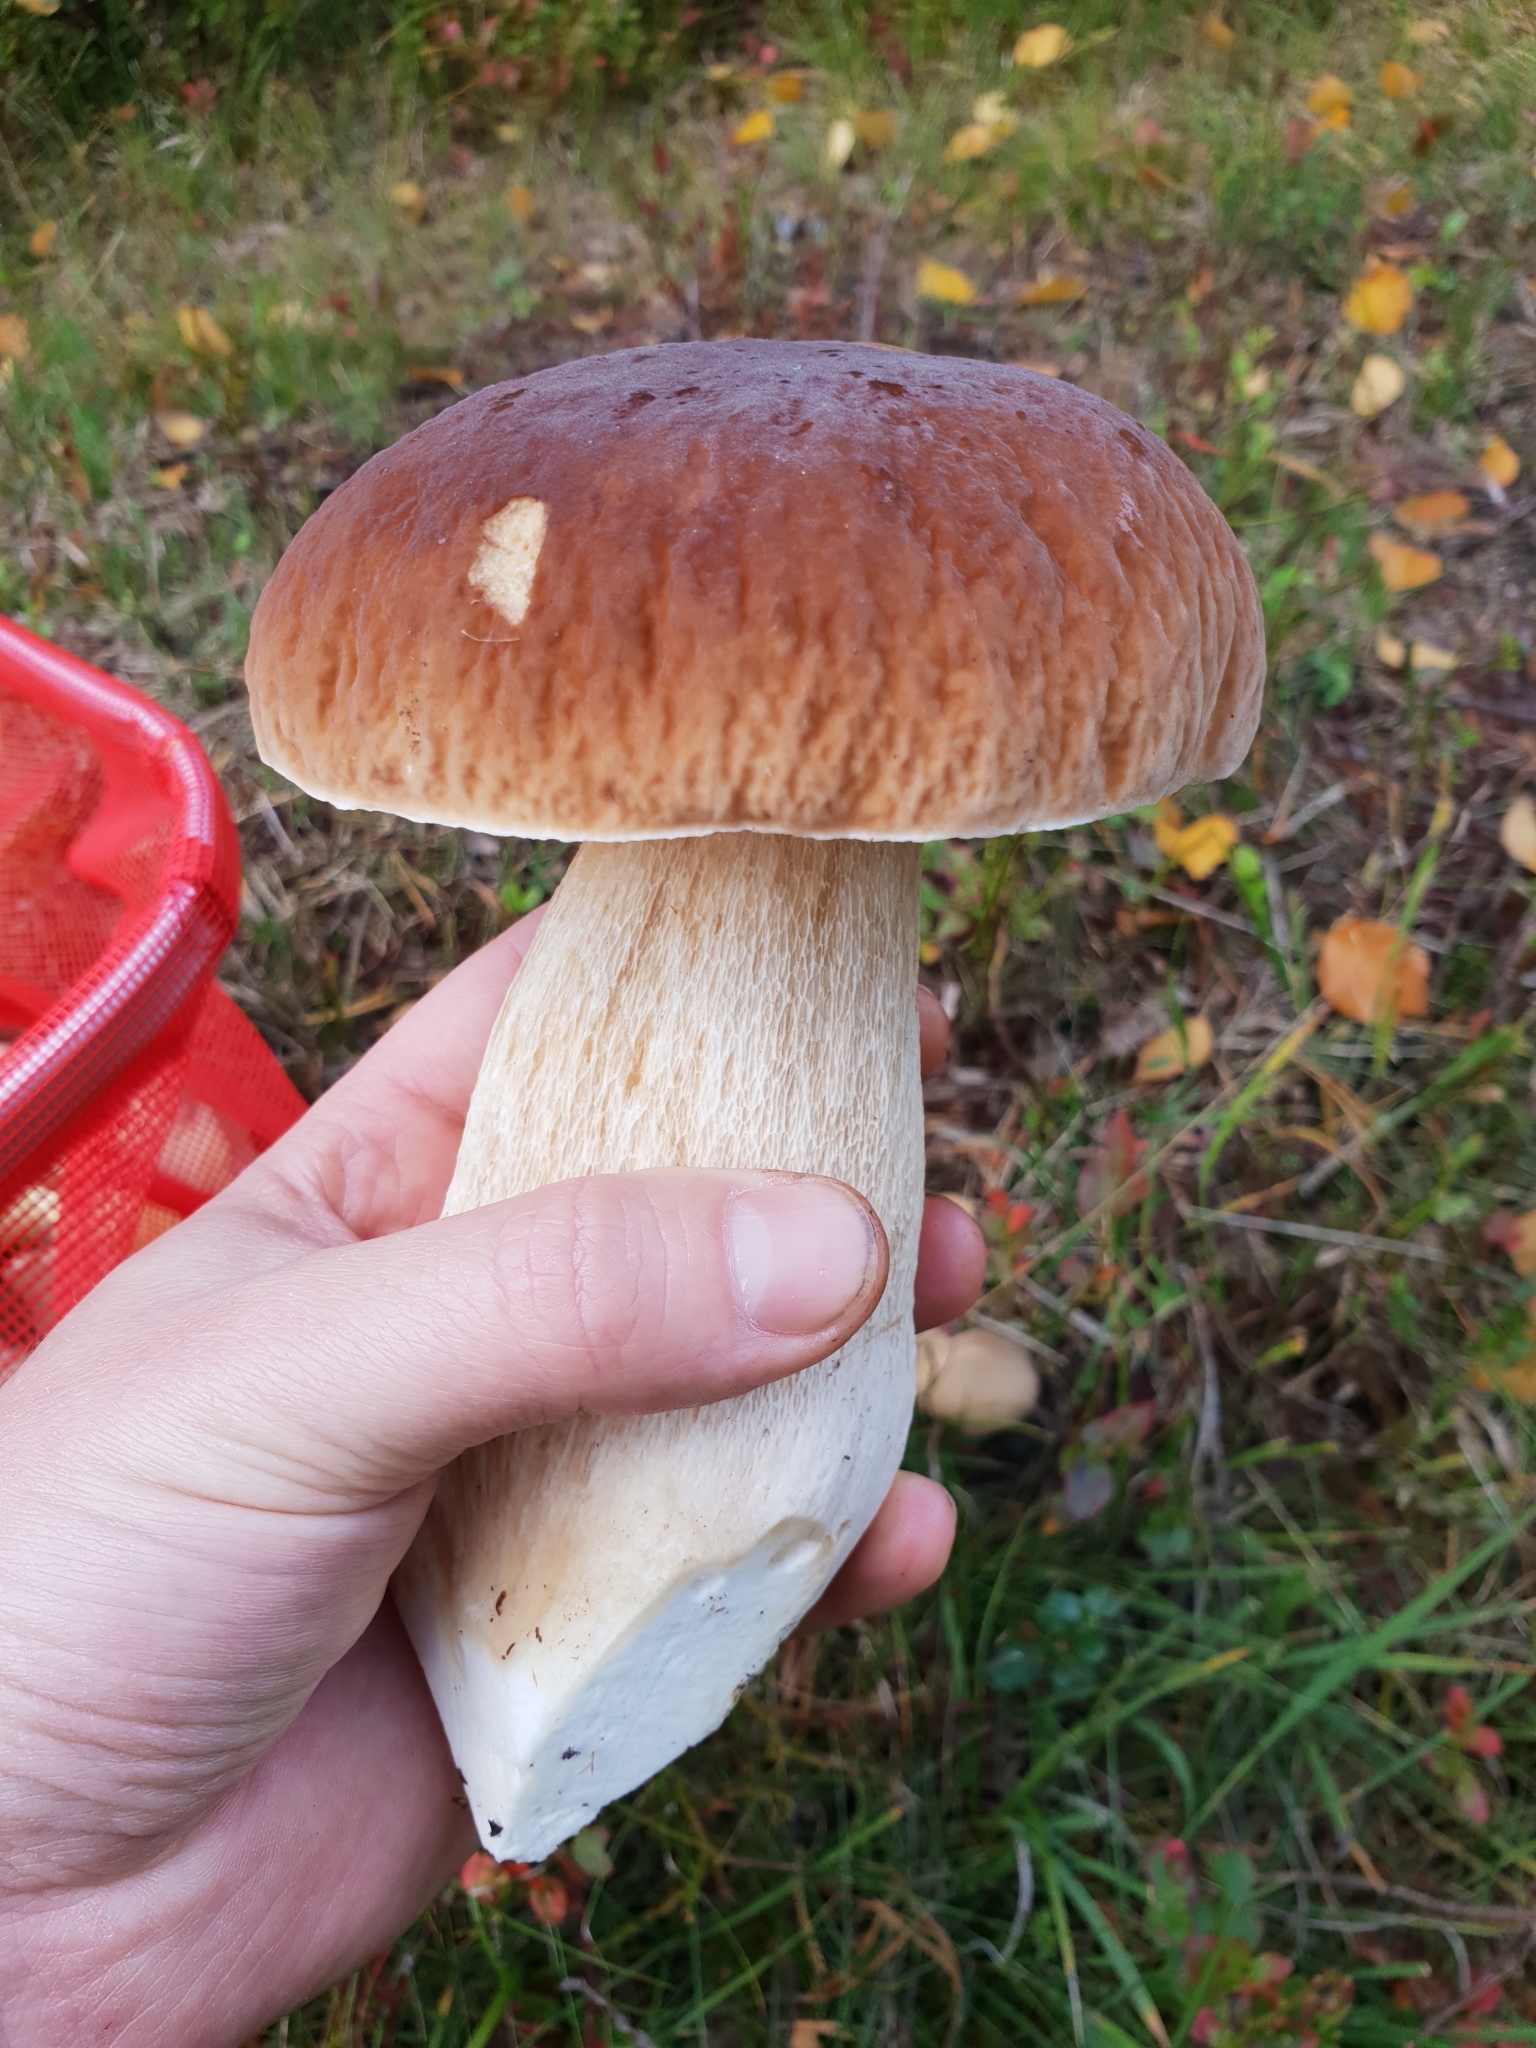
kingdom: Fungi
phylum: Basidiomycota
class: Agaricomycetes
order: Boletales
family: Boletaceae
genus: Boletus
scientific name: Boletus edulis
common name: Cep
